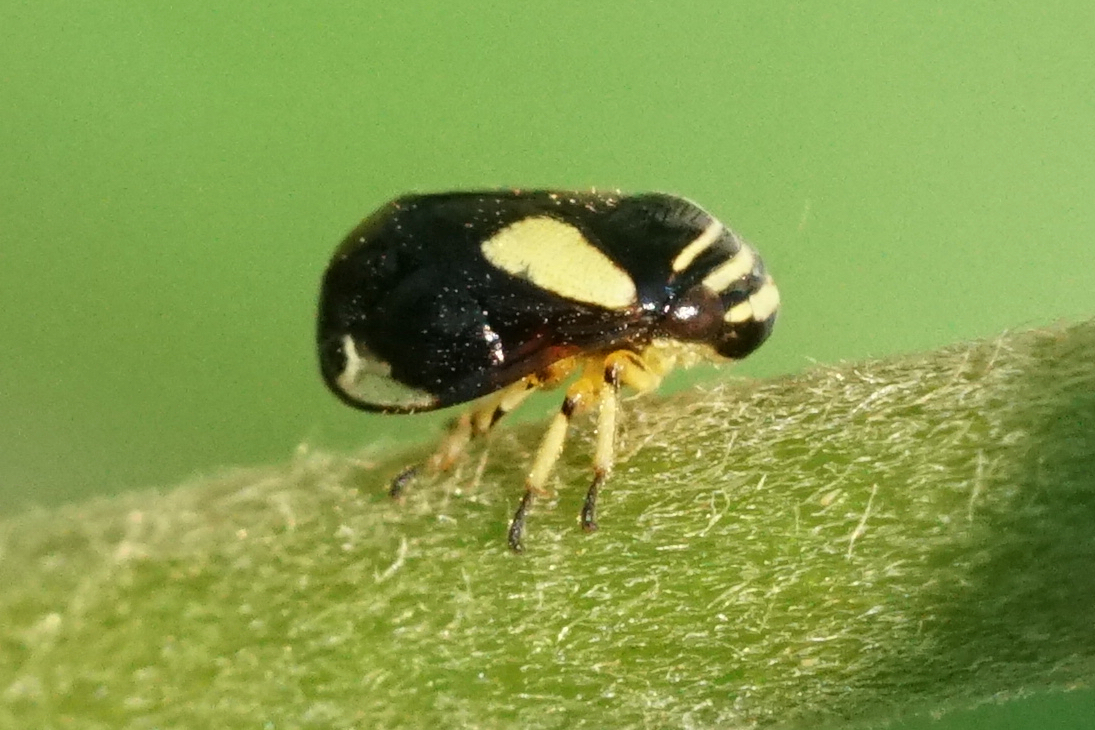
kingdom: Animalia
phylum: Arthropoda
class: Insecta
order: Hemiptera
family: Clastopteridae
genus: Clastoptera
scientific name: Clastoptera proteus
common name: Dogwood spittlebug
